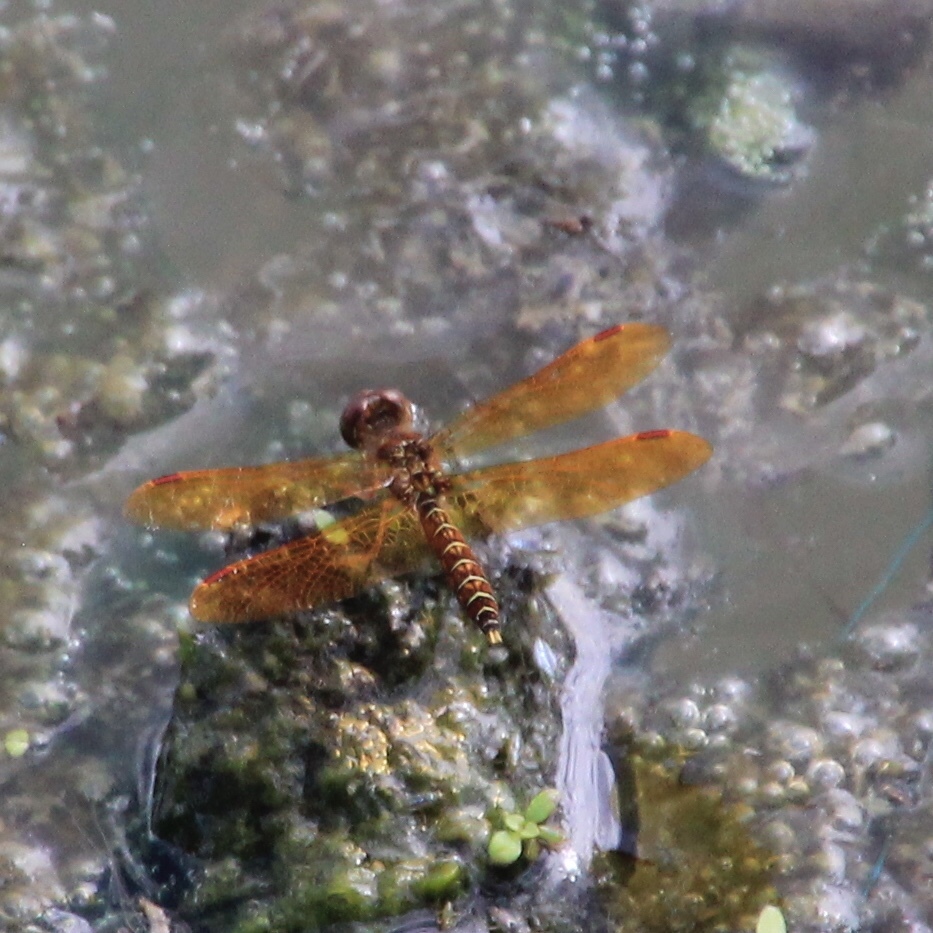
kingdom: Animalia
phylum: Arthropoda
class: Insecta
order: Odonata
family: Libellulidae
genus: Perithemis
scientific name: Perithemis tenera
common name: Eastern amberwing
